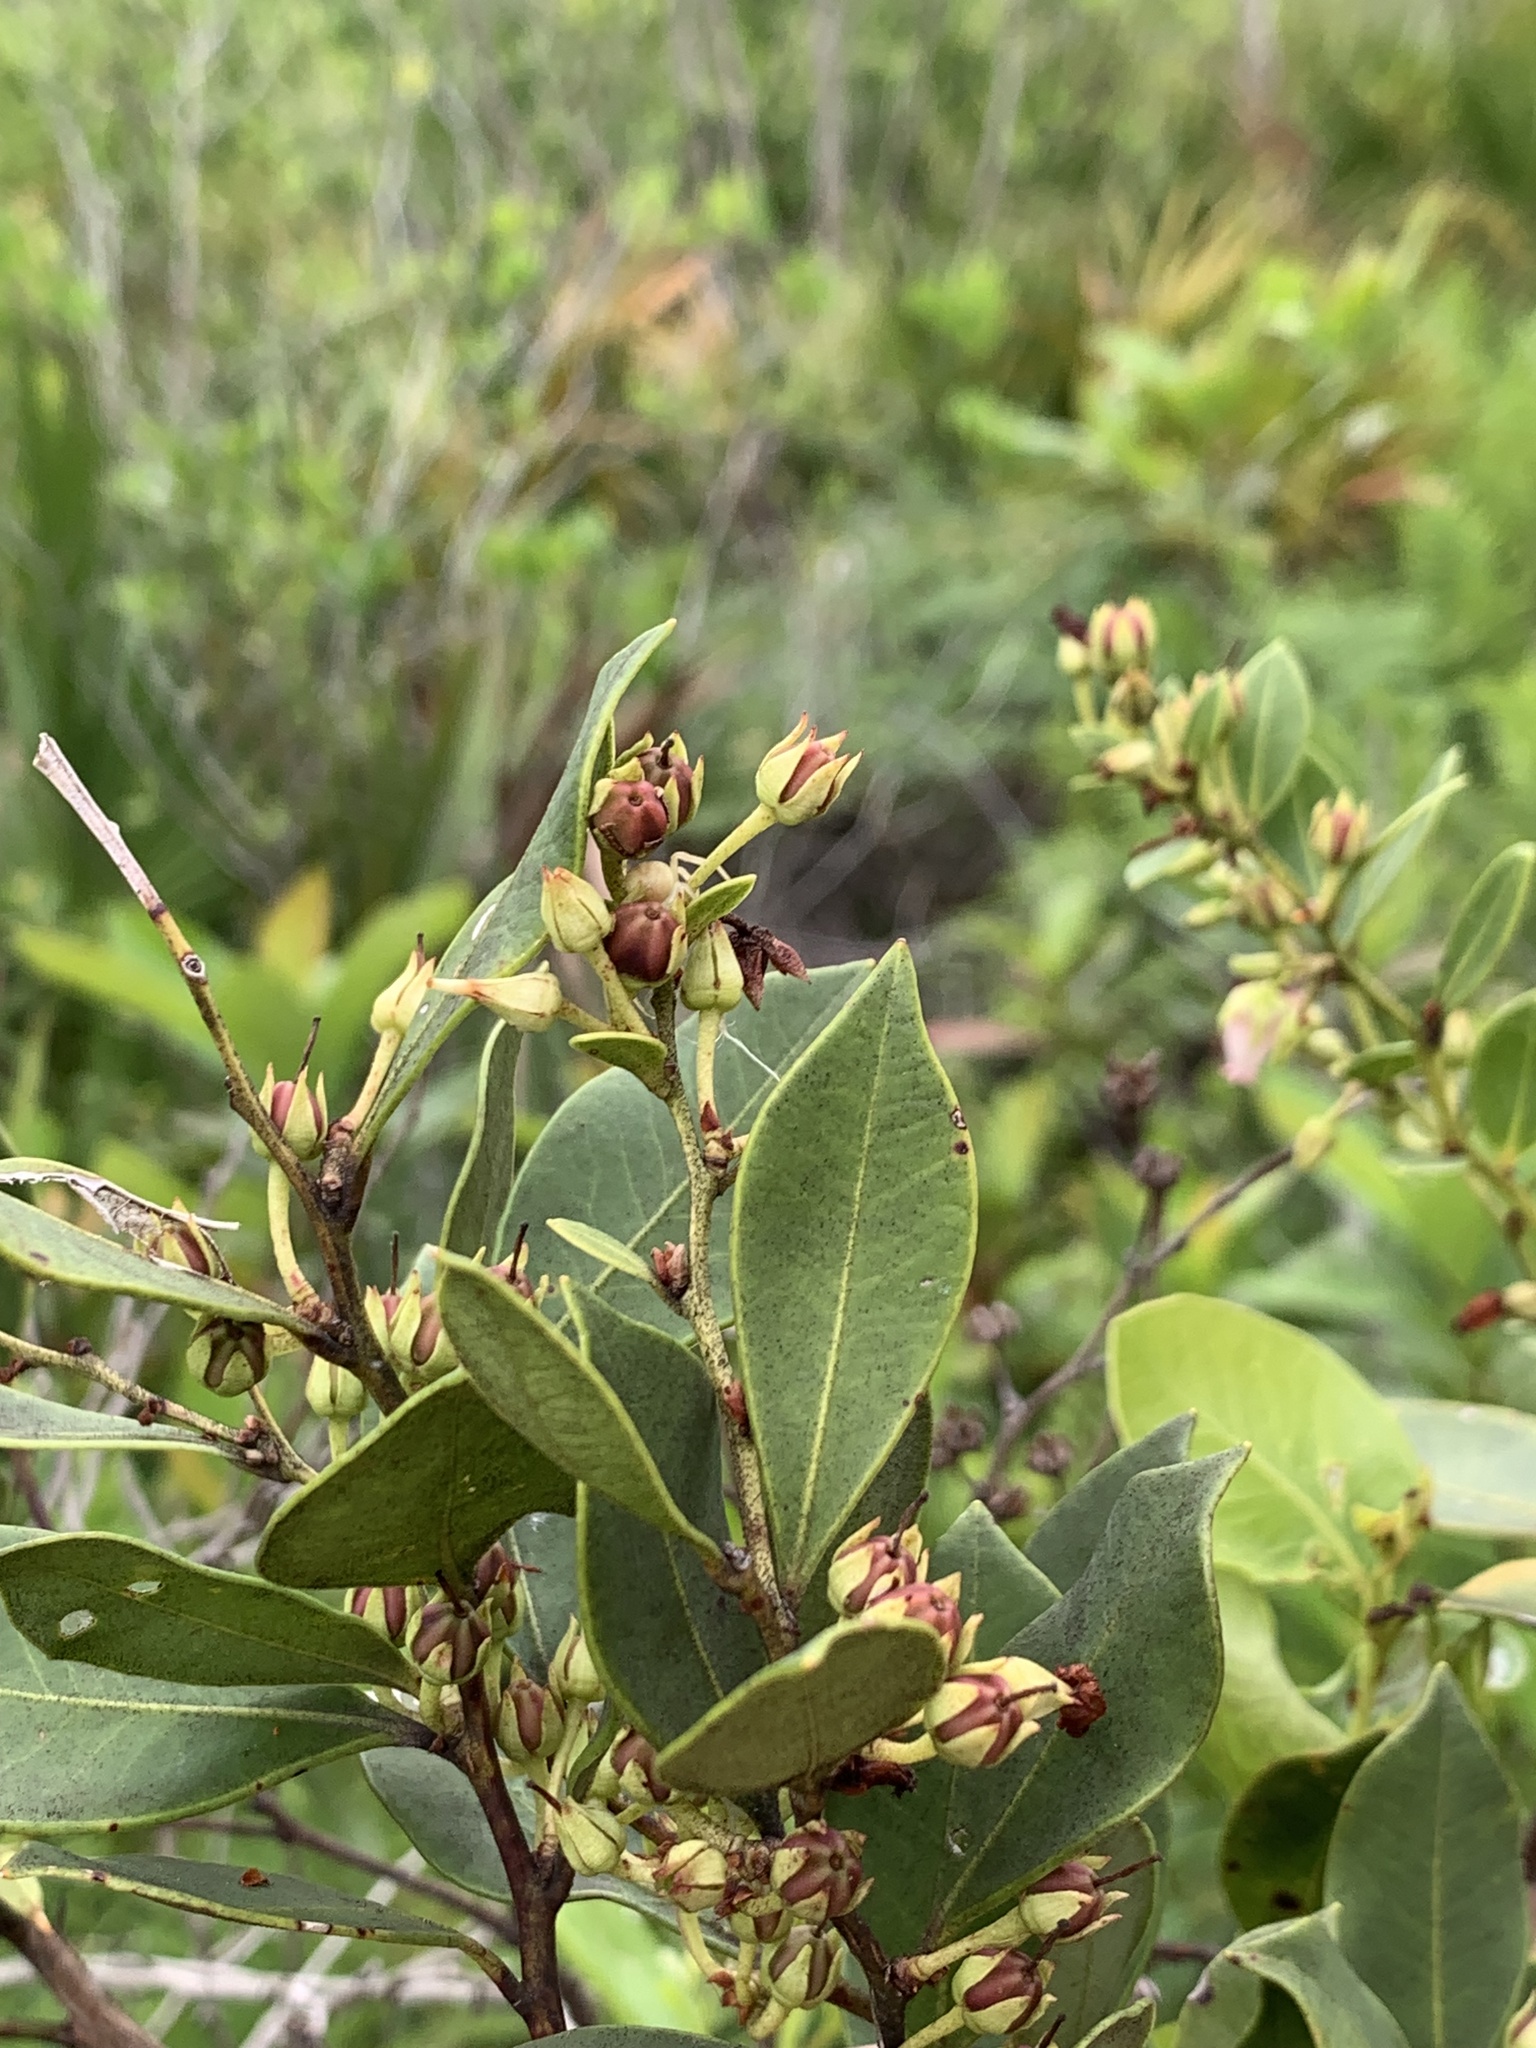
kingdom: Plantae
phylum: Tracheophyta
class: Magnoliopsida
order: Ericales
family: Ericaceae
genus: Lyonia
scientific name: Lyonia lucida
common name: Fetterbush
